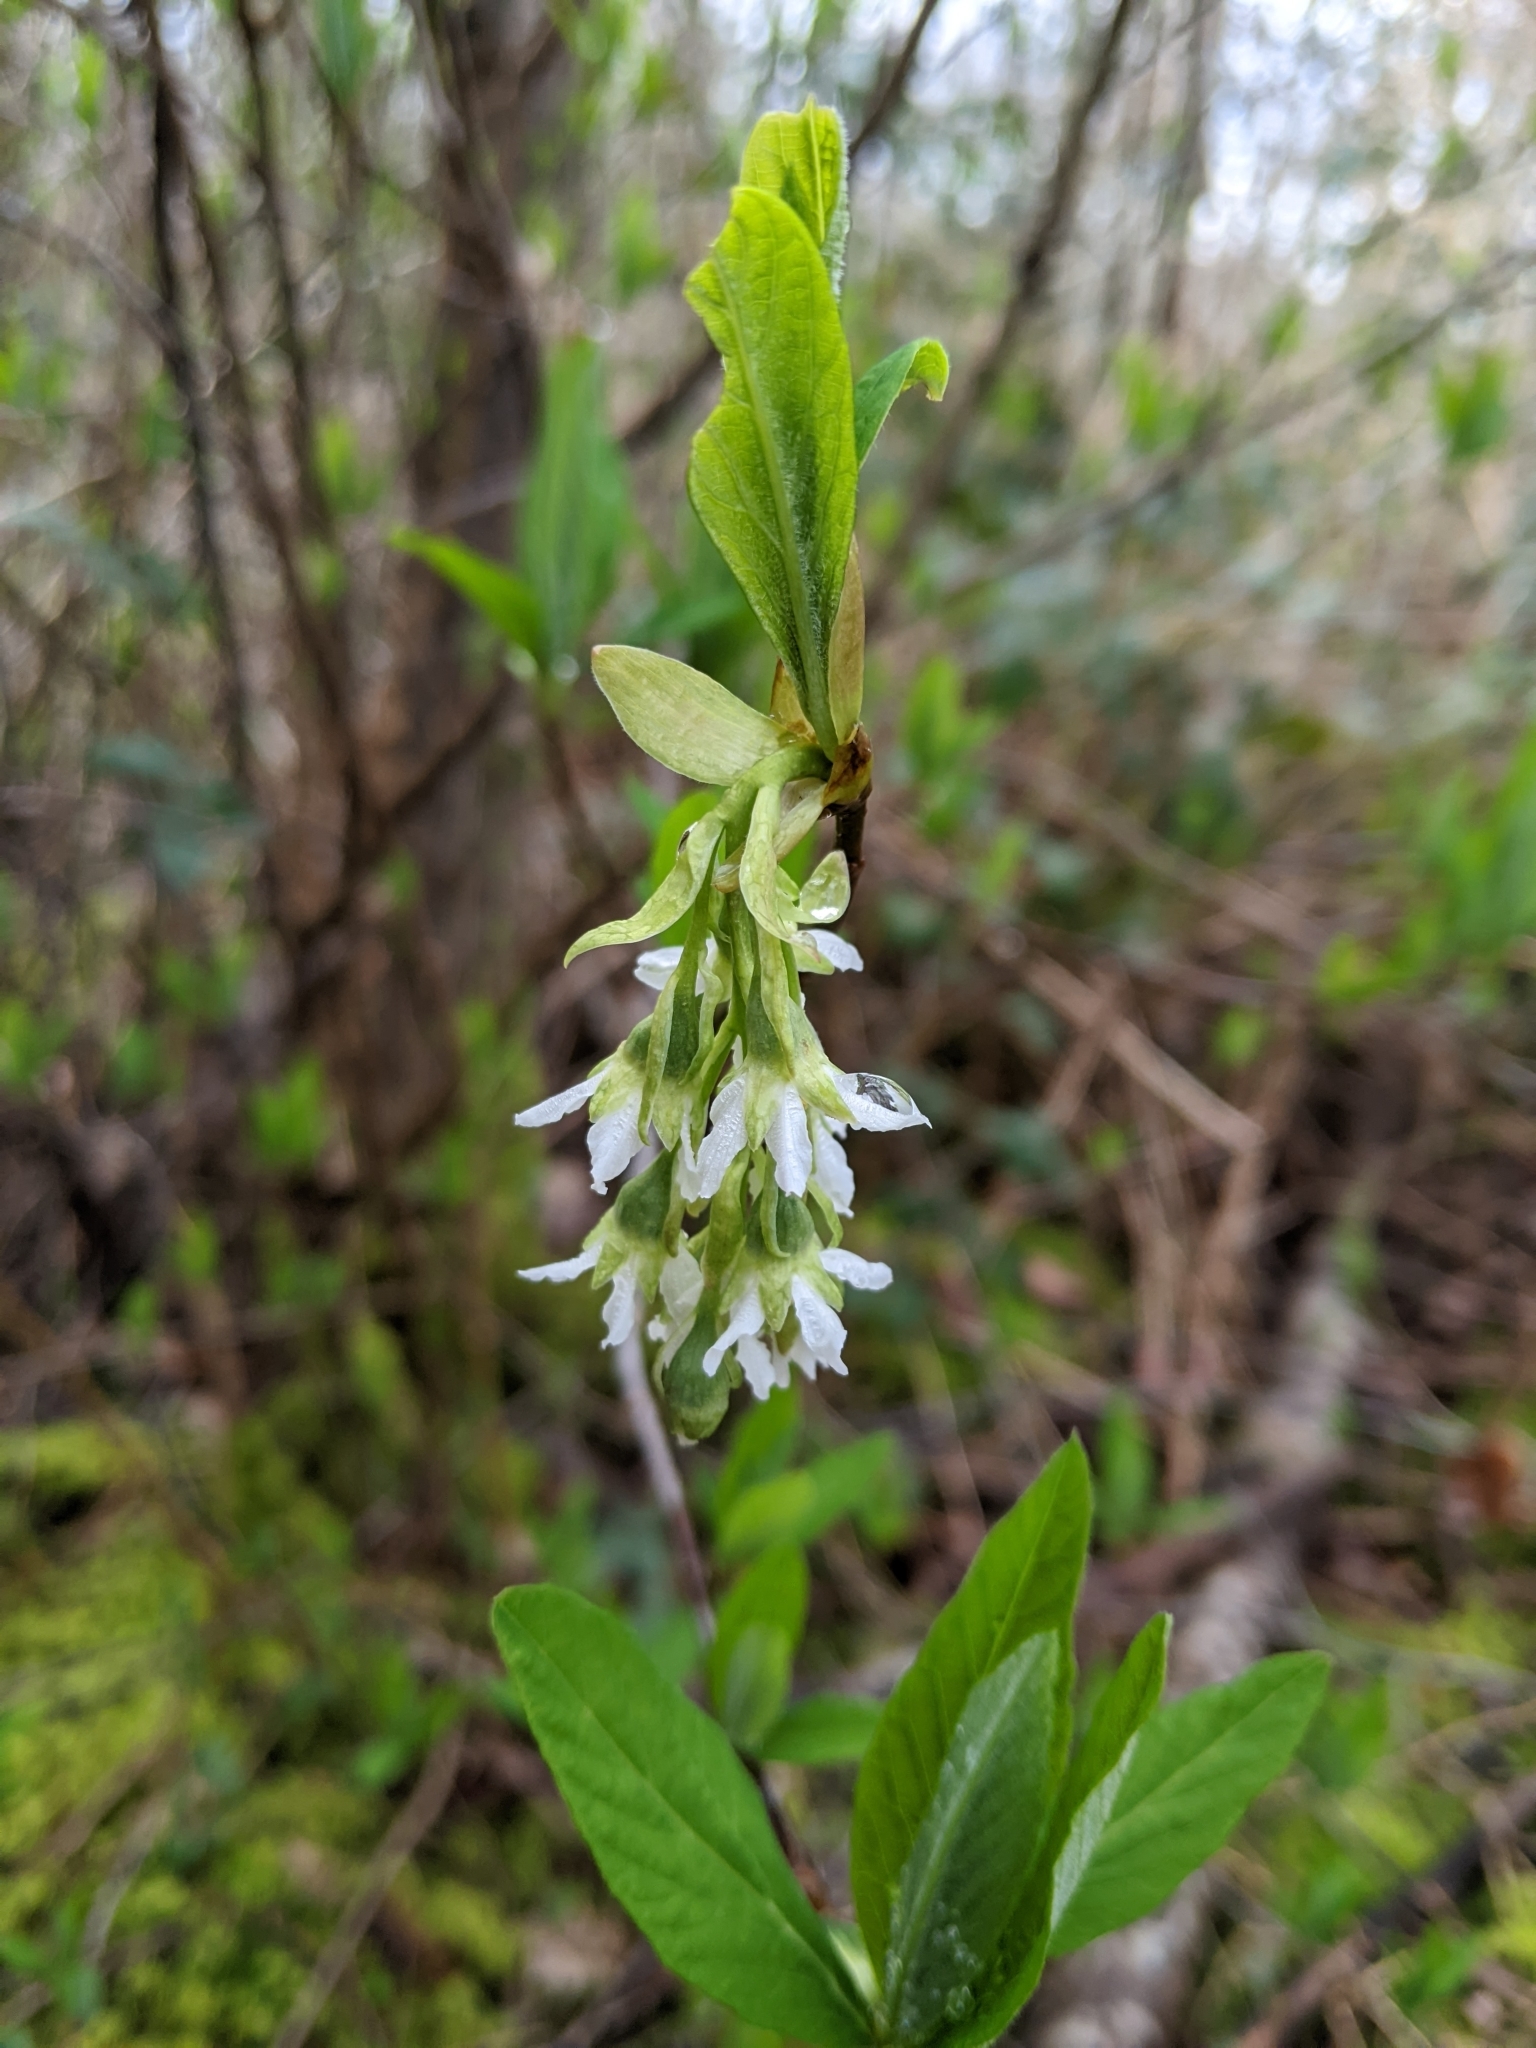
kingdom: Plantae
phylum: Tracheophyta
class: Magnoliopsida
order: Rosales
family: Rosaceae
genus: Oemleria
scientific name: Oemleria cerasiformis
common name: Osoberry
